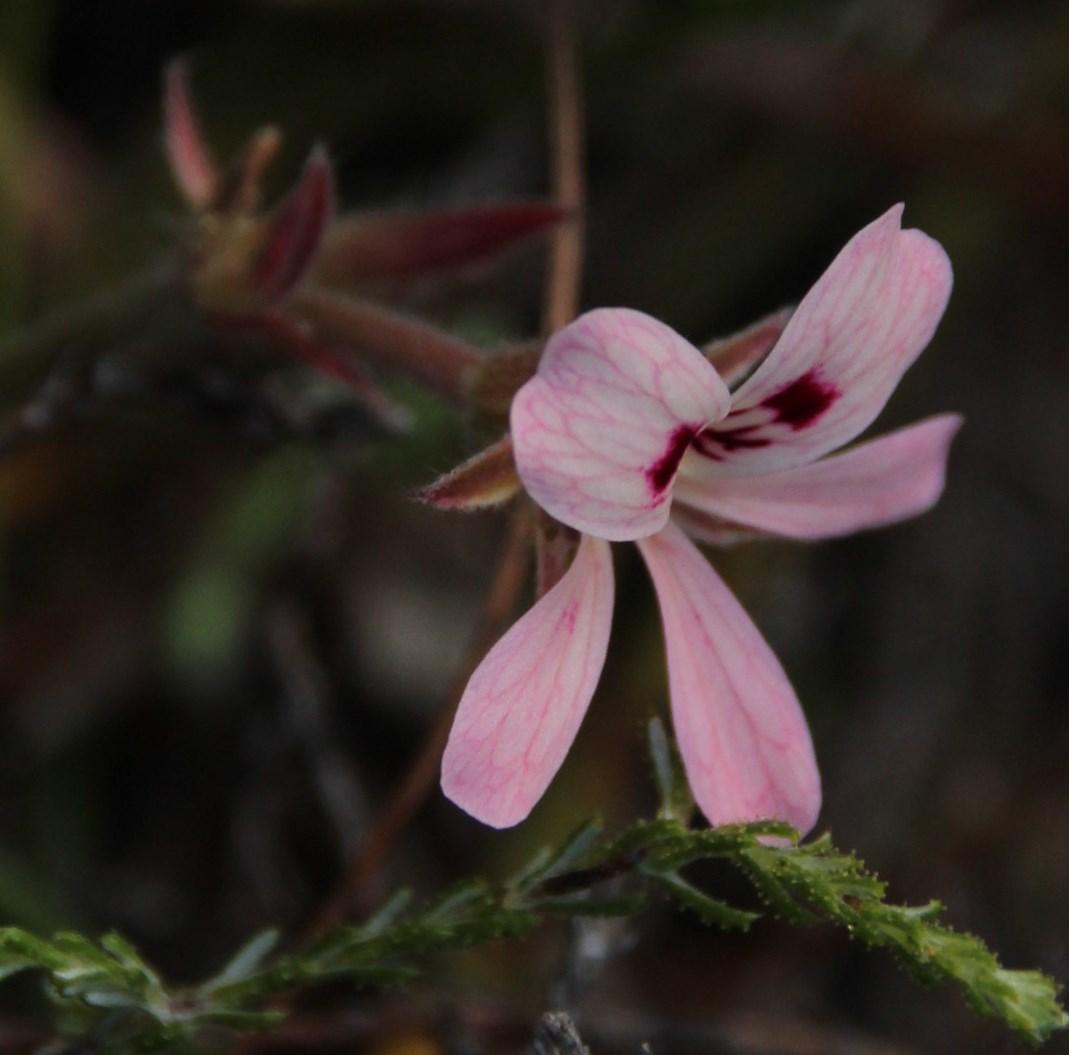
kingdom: Plantae
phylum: Tracheophyta
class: Magnoliopsida
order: Geraniales
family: Geraniaceae
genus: Pelargonium
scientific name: Pelargonium psammophilum
